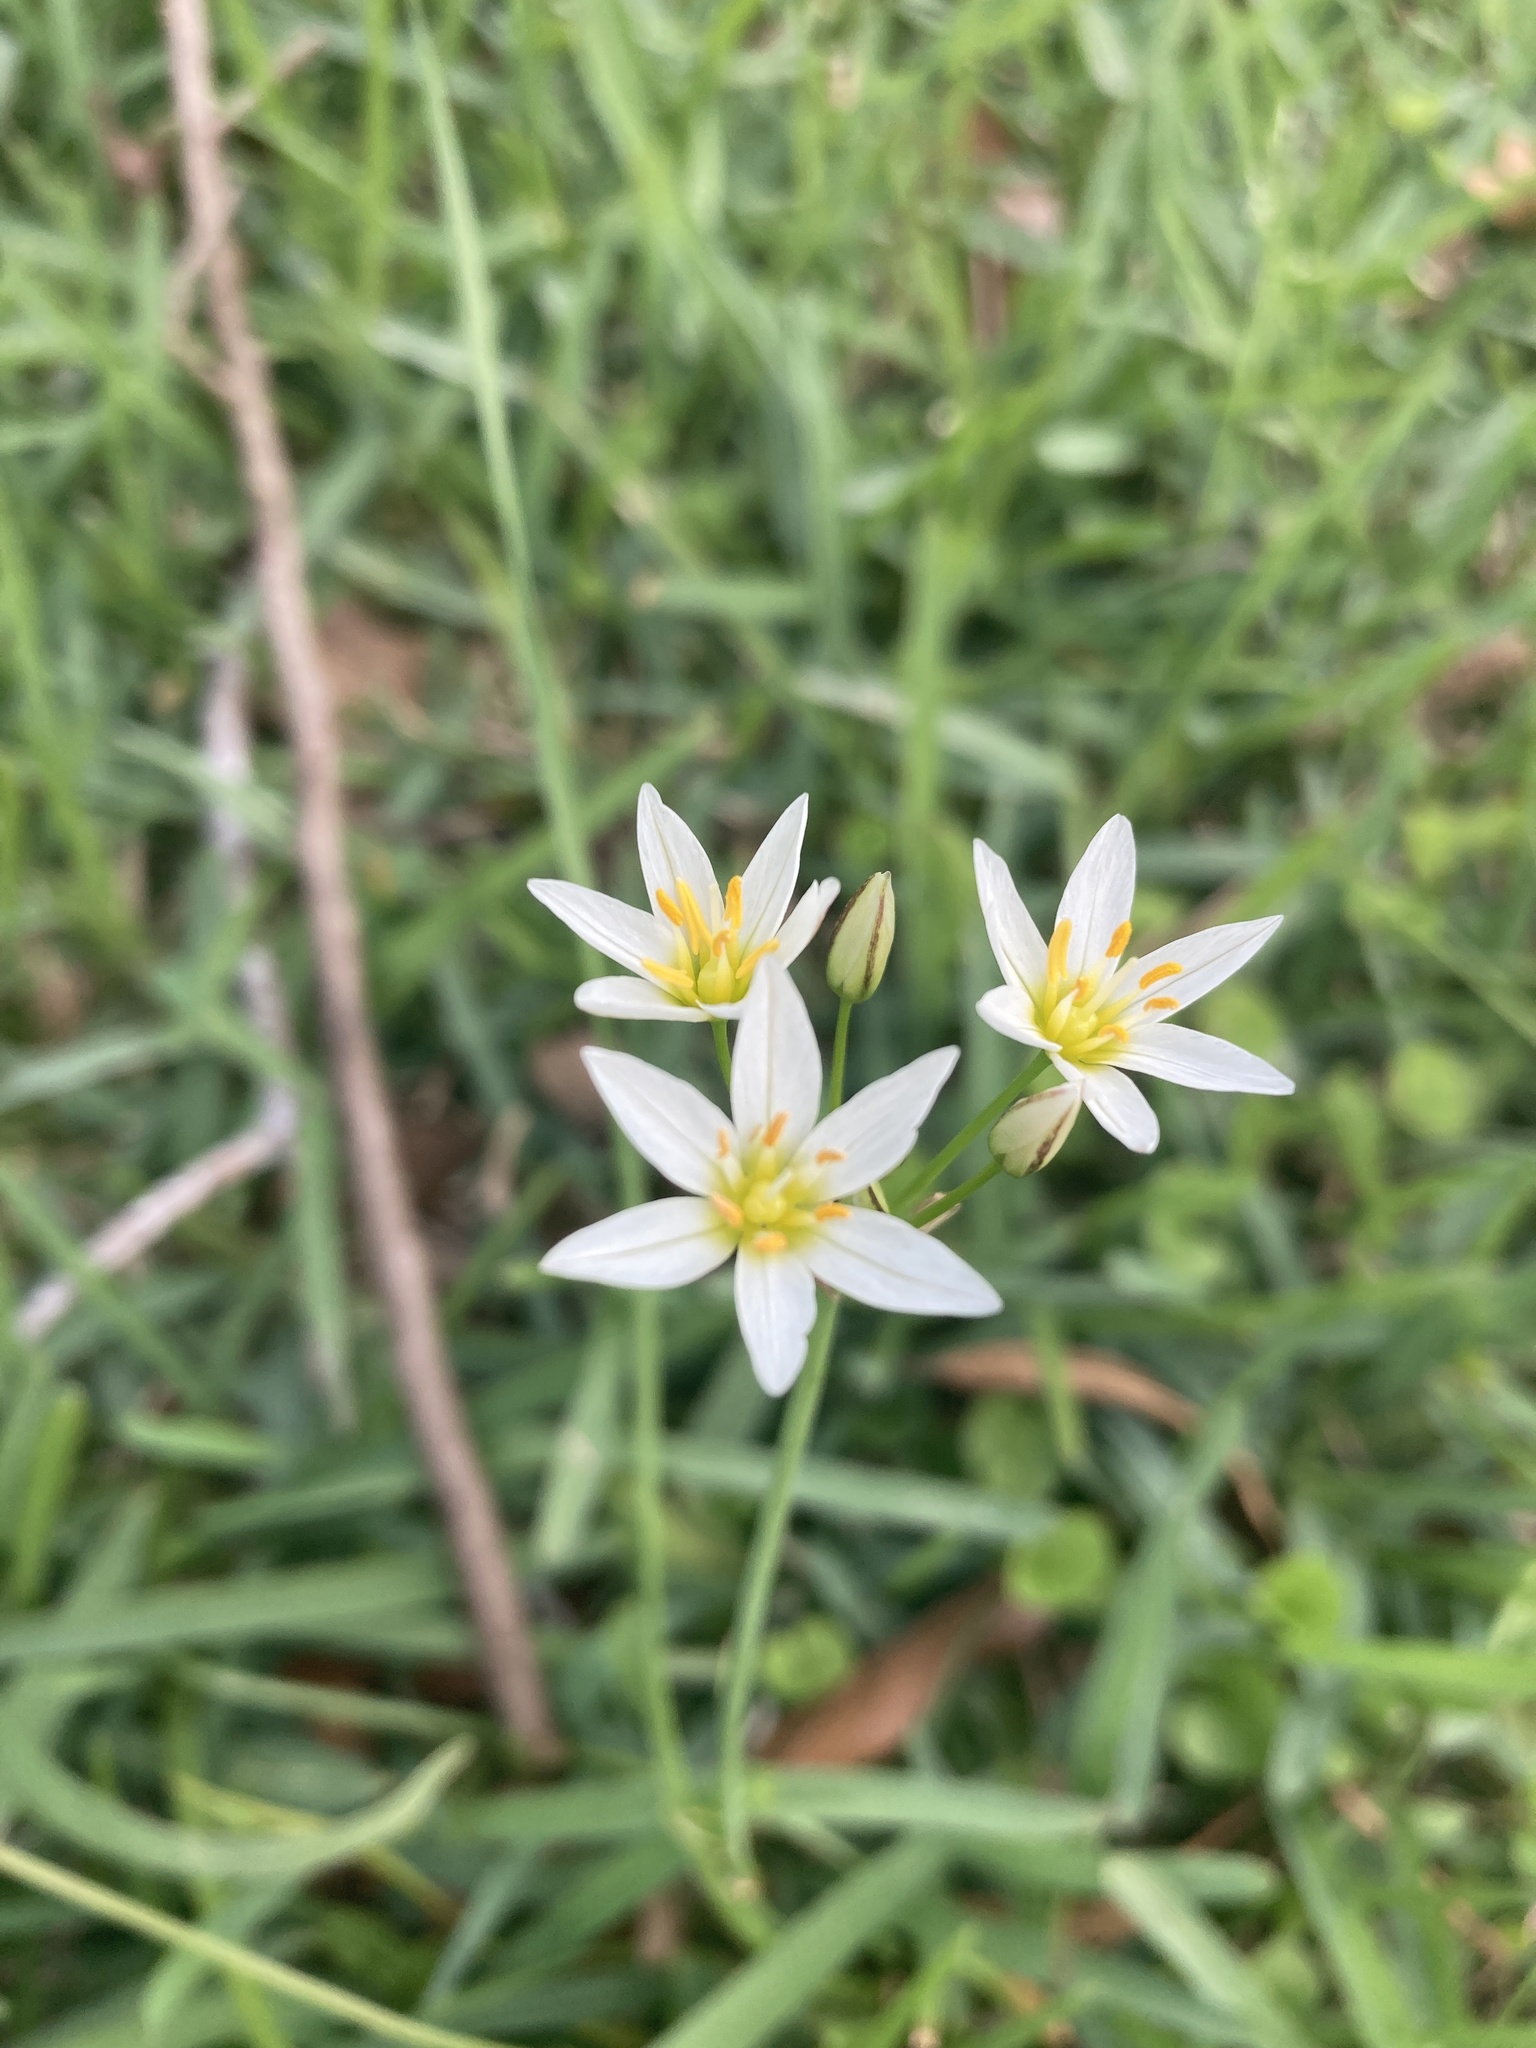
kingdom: Plantae
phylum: Tracheophyta
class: Liliopsida
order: Asparagales
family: Amaryllidaceae
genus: Nothoscordum
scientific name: Nothoscordum bivalve
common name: Crow-poison
